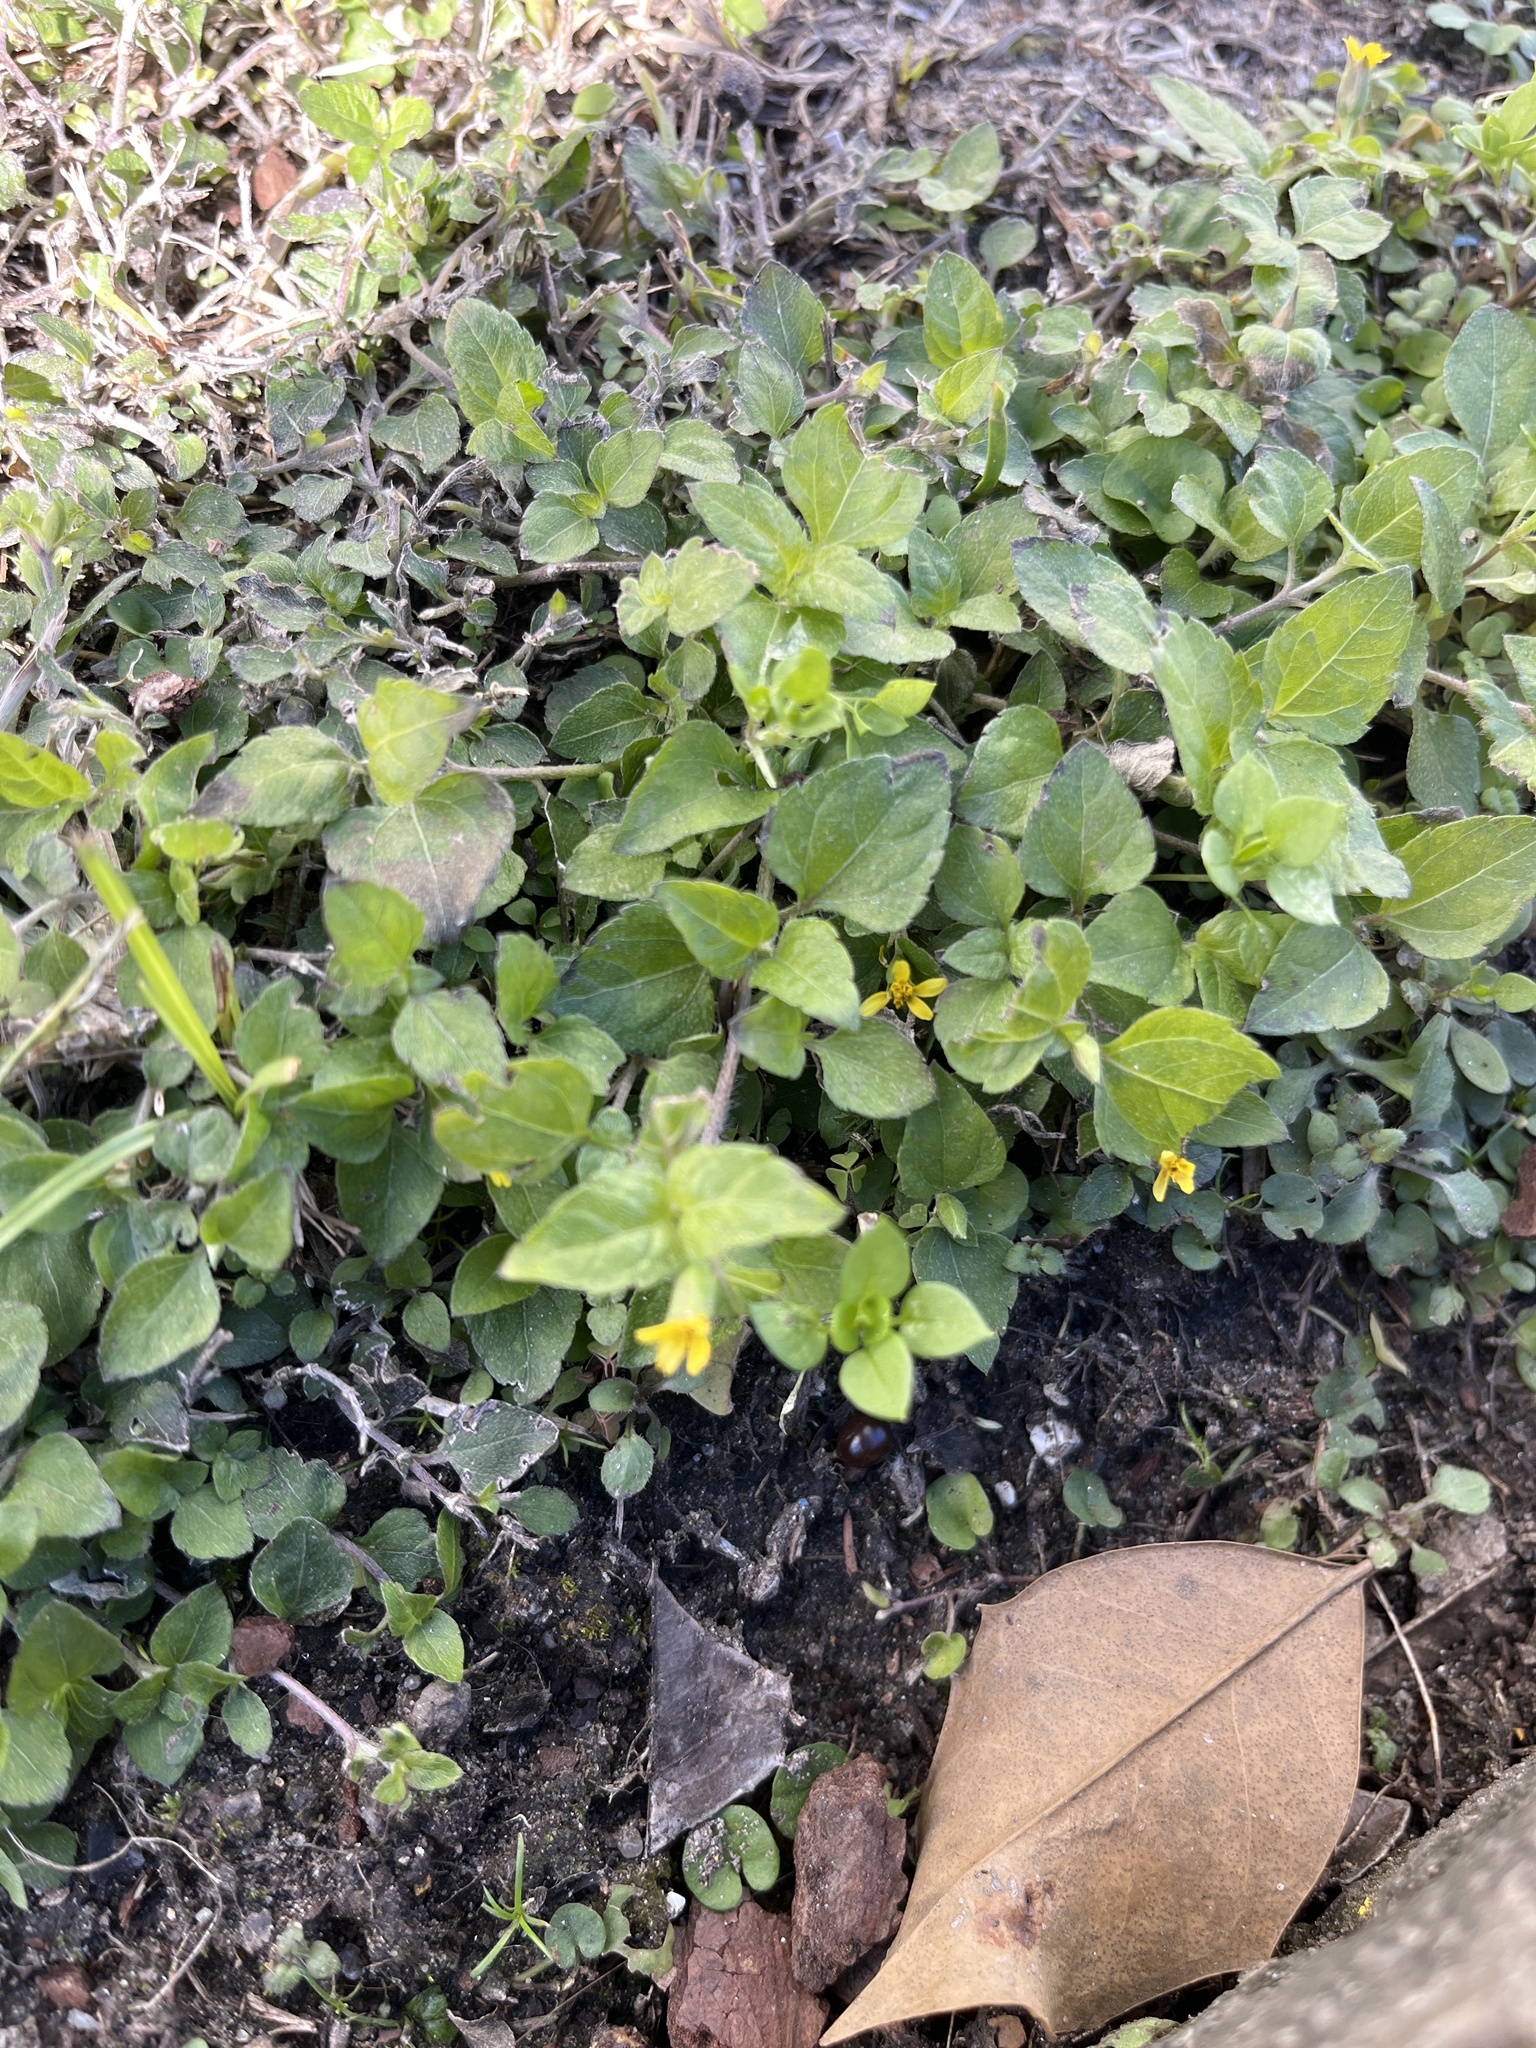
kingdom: Plantae
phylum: Tracheophyta
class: Magnoliopsida
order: Asterales
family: Asteraceae
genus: Calyptocarpus
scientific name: Calyptocarpus vialis
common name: Straggler daisy
